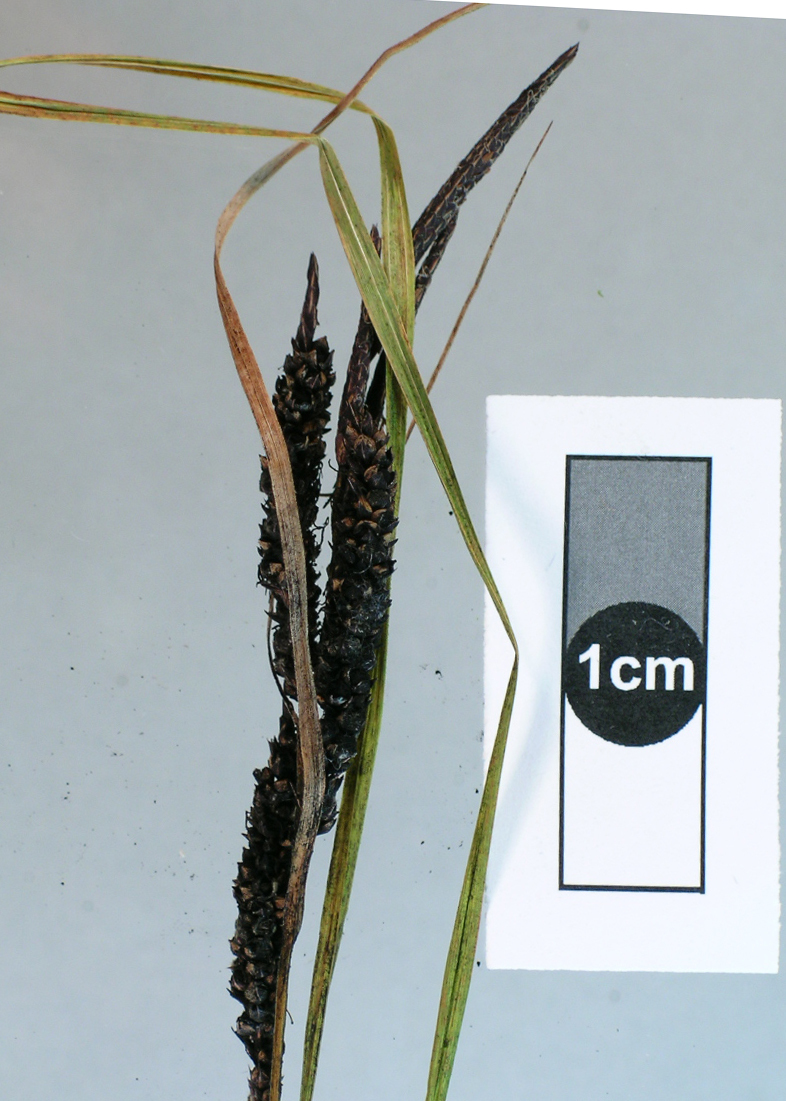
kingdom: Fungi
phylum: Basidiomycota
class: Ustilaginomycetes
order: Ustilaginales
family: Anthracoideaceae
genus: Anthracoidea
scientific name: Anthracoidea heterospora
